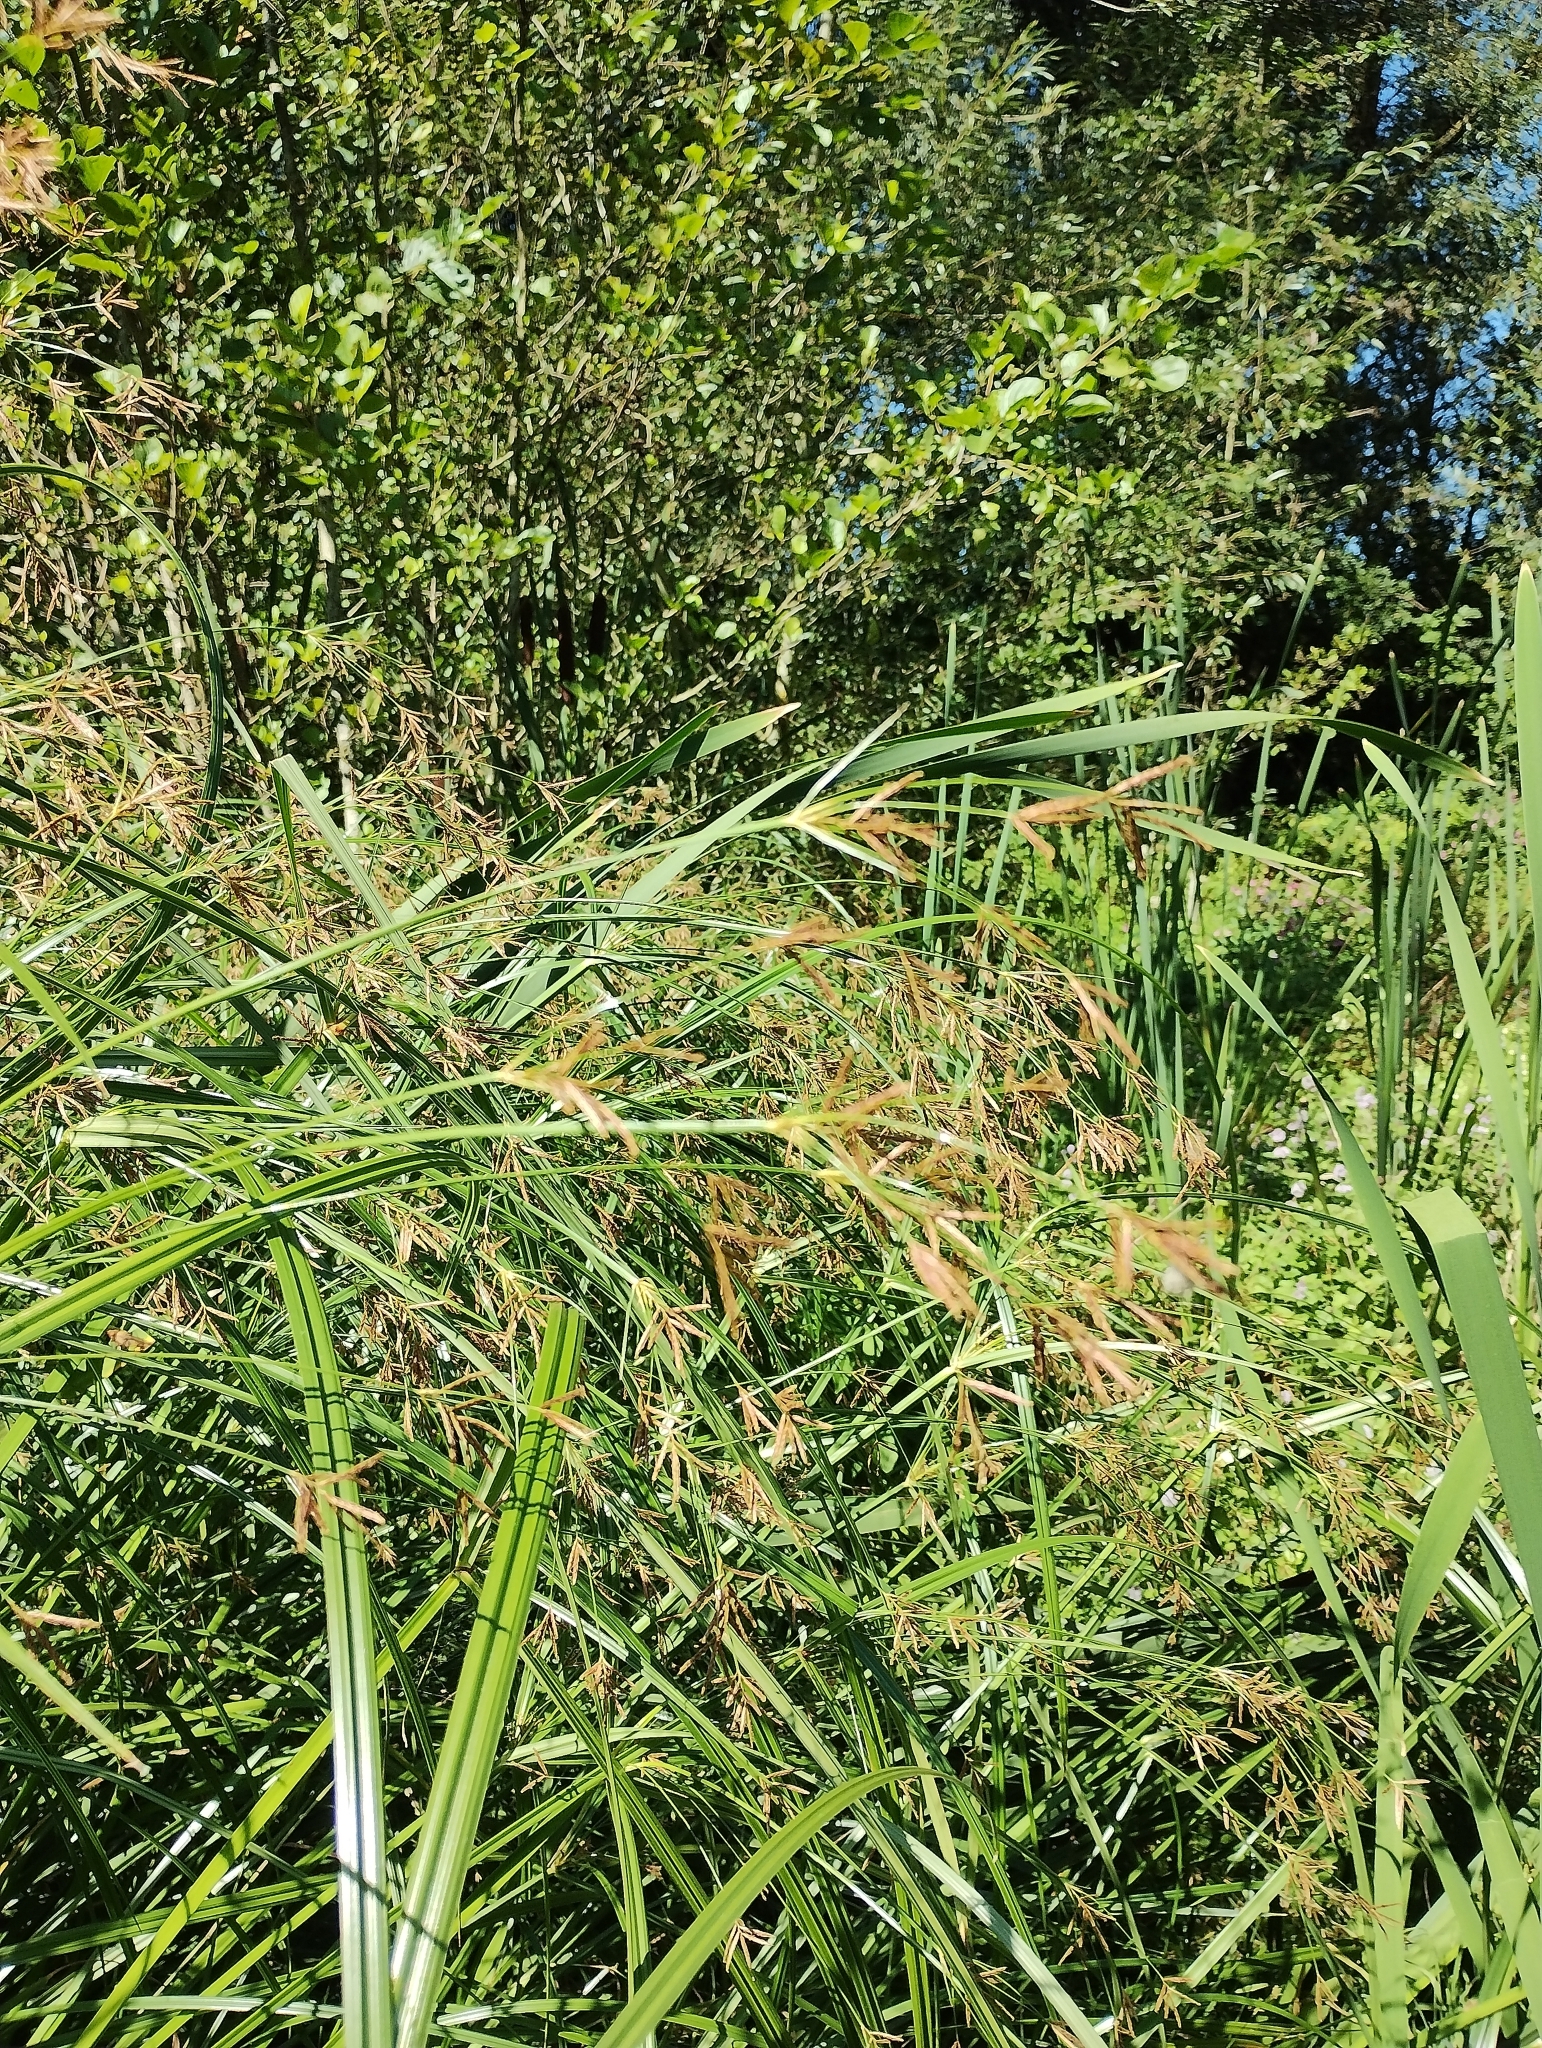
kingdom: Plantae
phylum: Tracheophyta
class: Liliopsida
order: Poales
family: Cyperaceae
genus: Cyperus
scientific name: Cyperus longus
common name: Galingale
